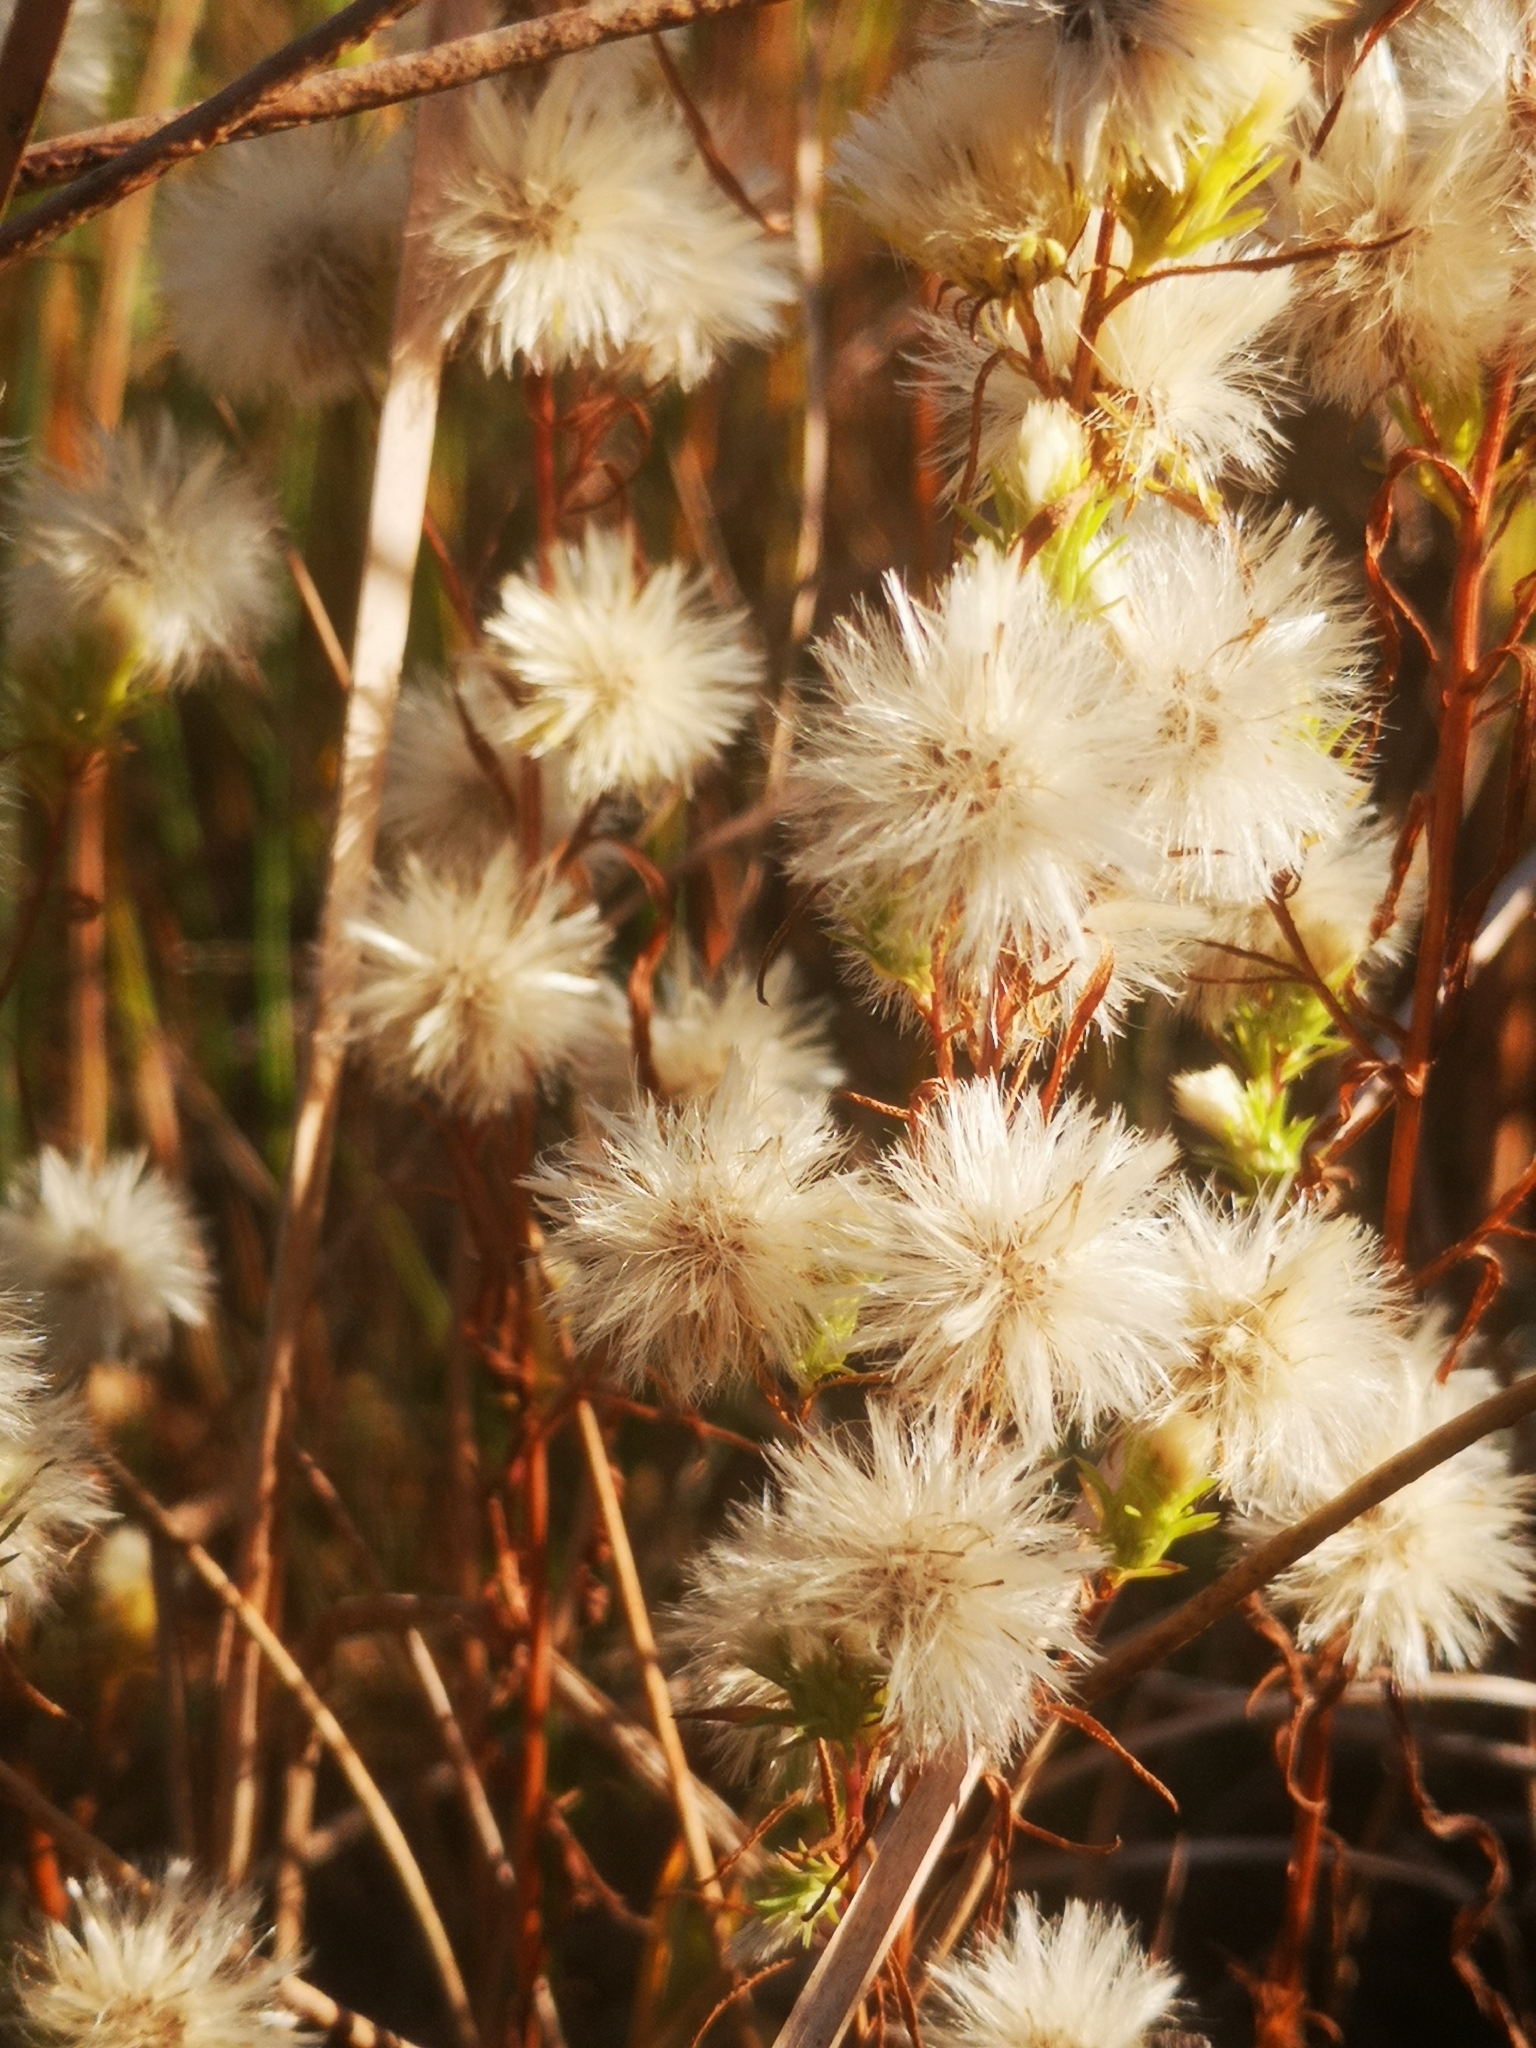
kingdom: Plantae
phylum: Tracheophyta
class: Magnoliopsida
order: Asterales
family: Asteraceae
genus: Symphyotrichum
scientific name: Symphyotrichum ciliatum
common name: Rayless annual aster
